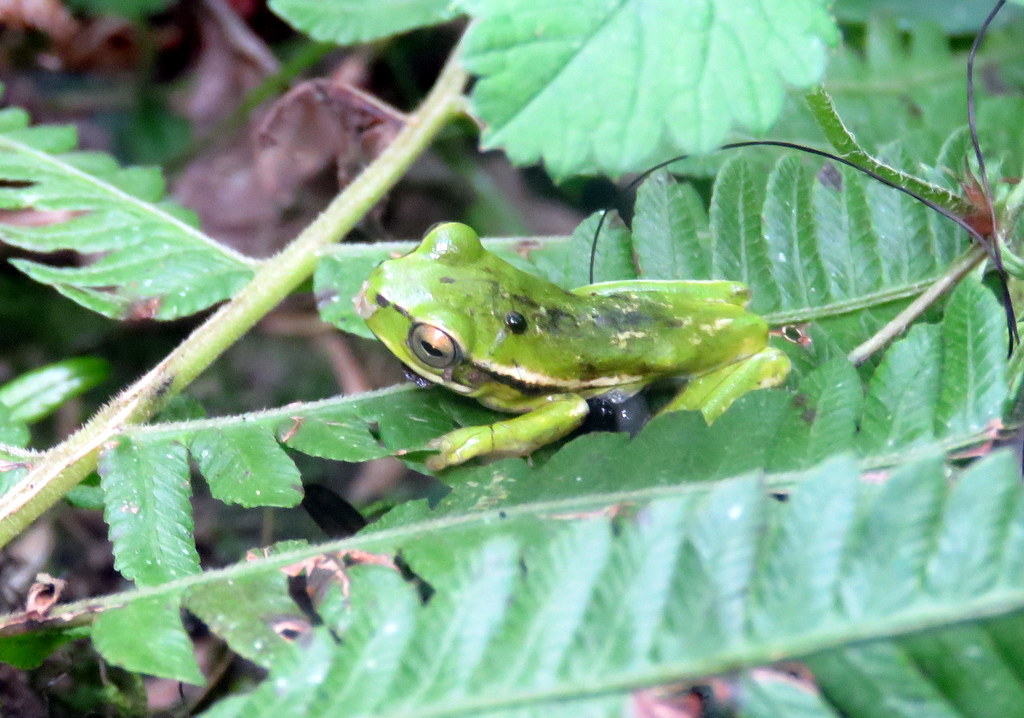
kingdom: Animalia
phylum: Chordata
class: Amphibia
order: Anura
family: Hylidae
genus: Boana
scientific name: Boana riojana
